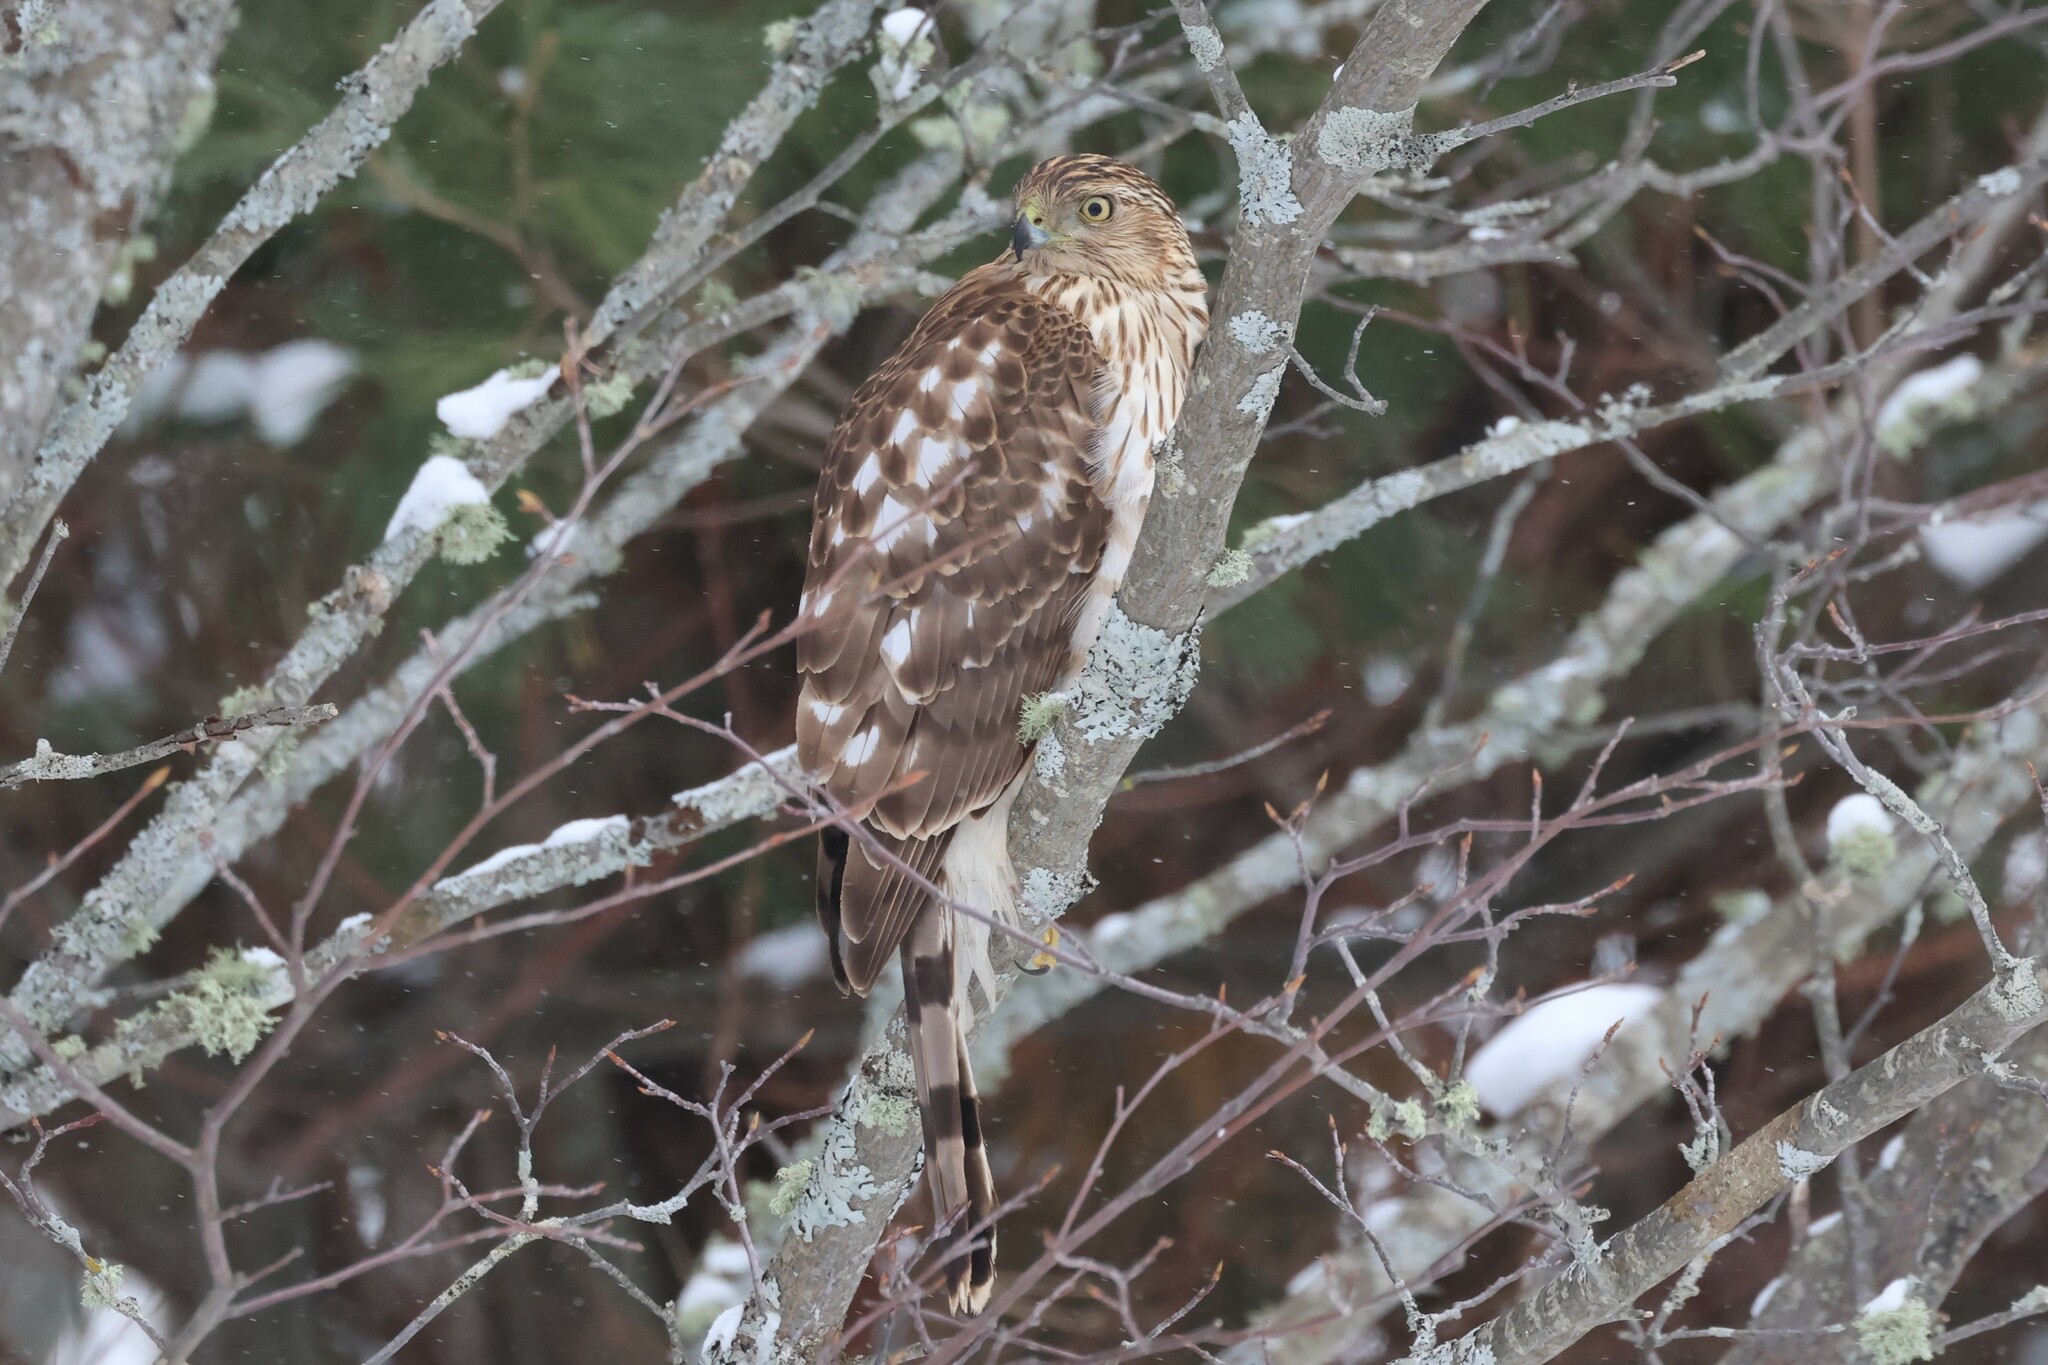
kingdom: Animalia
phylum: Chordata
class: Aves
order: Accipitriformes
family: Accipitridae
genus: Accipiter
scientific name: Accipiter cooperii
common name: Cooper's hawk
